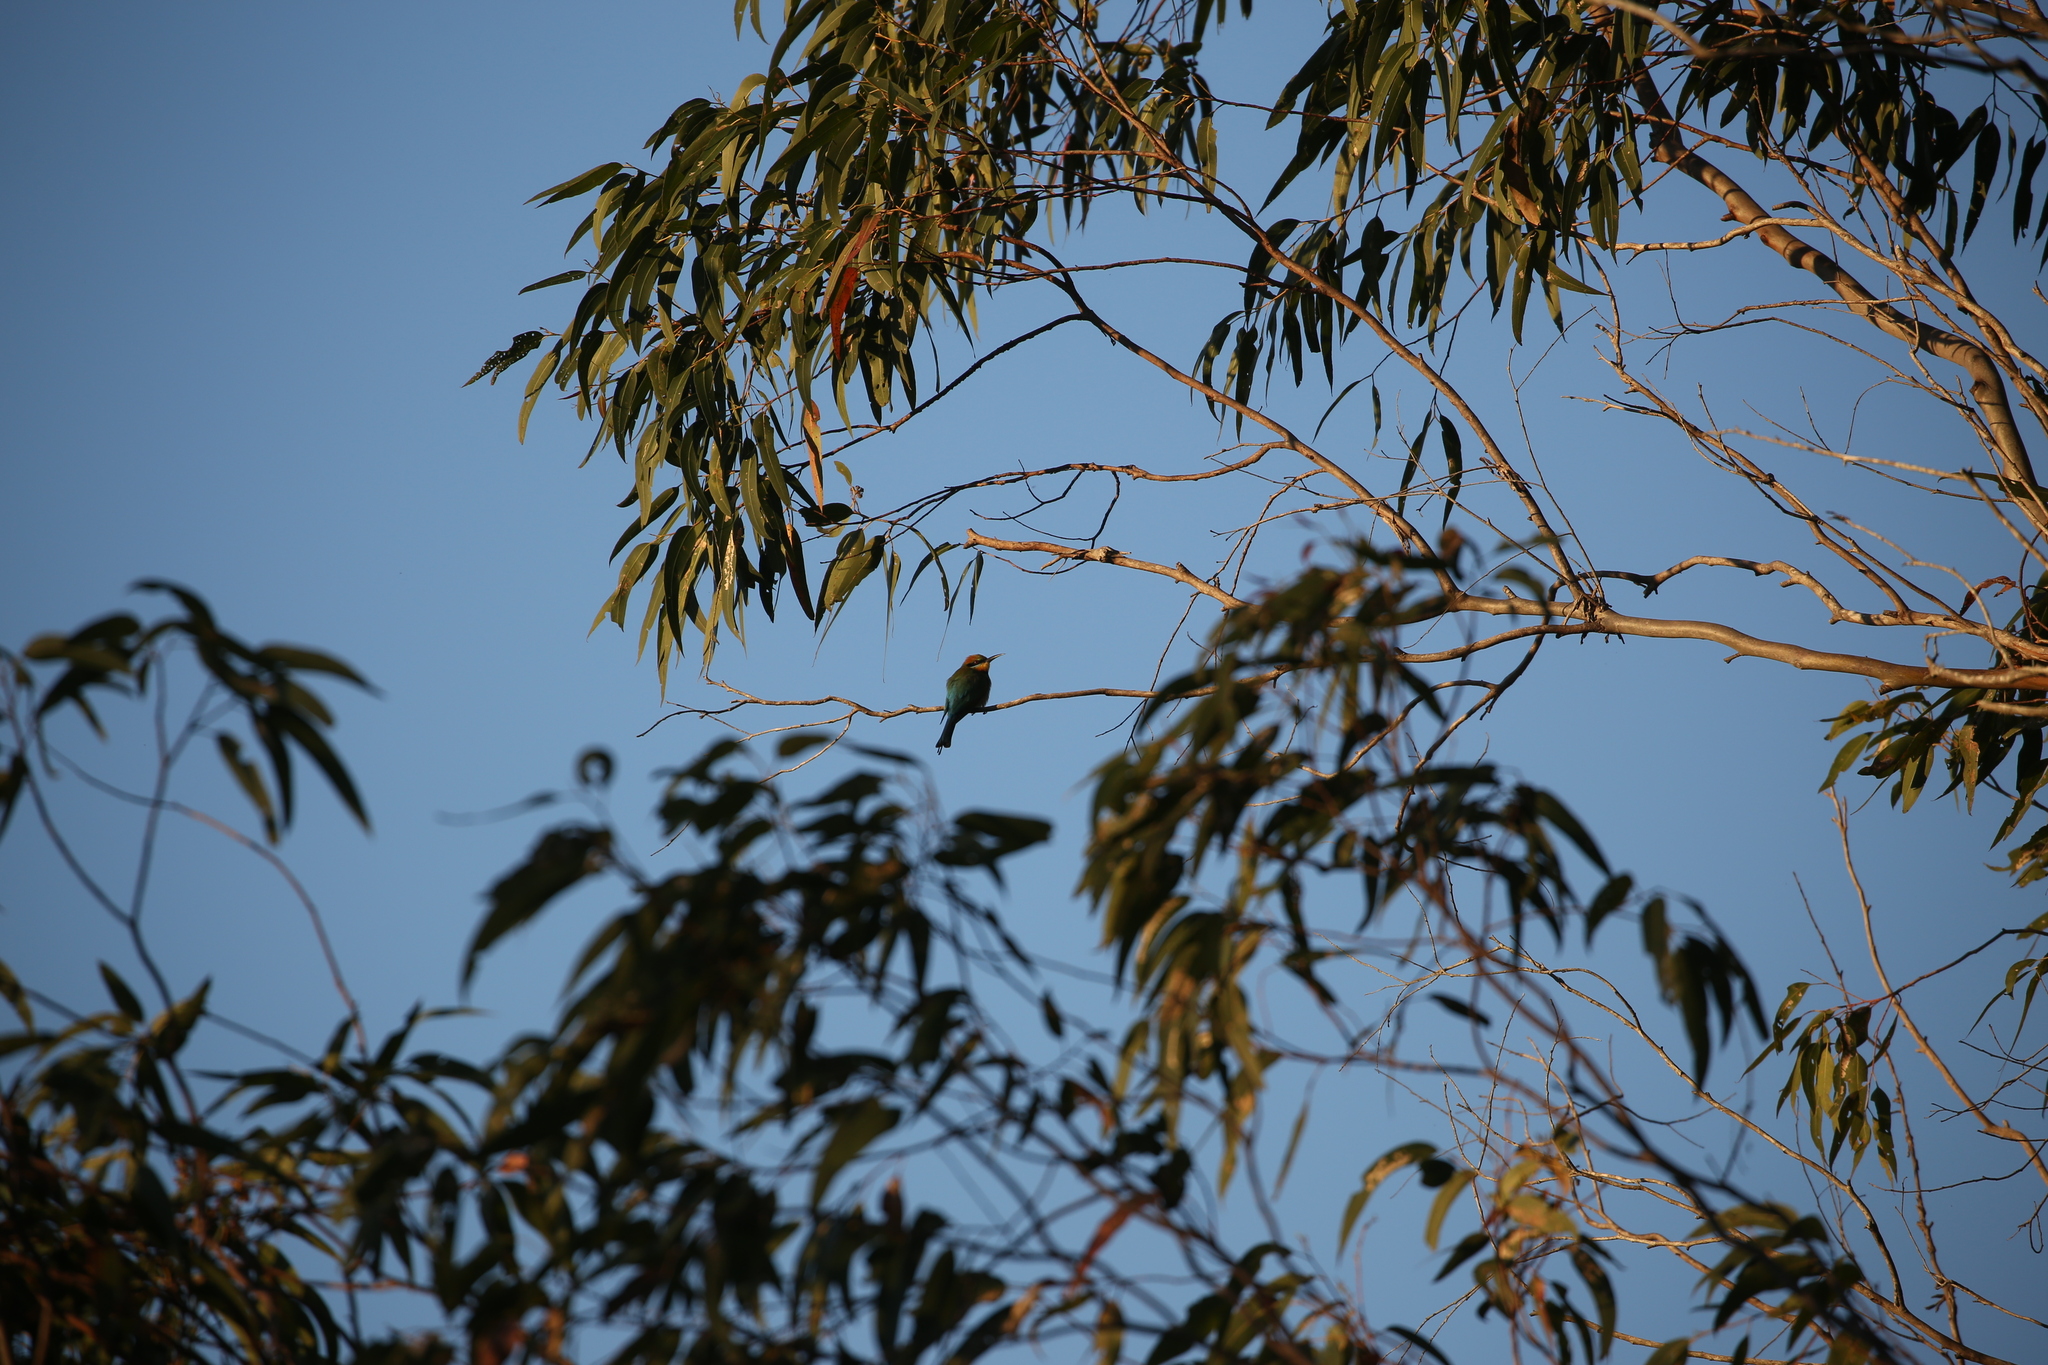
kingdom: Animalia
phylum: Chordata
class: Aves
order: Coraciiformes
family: Meropidae
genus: Merops
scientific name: Merops ornatus
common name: Rainbow bee-eater
